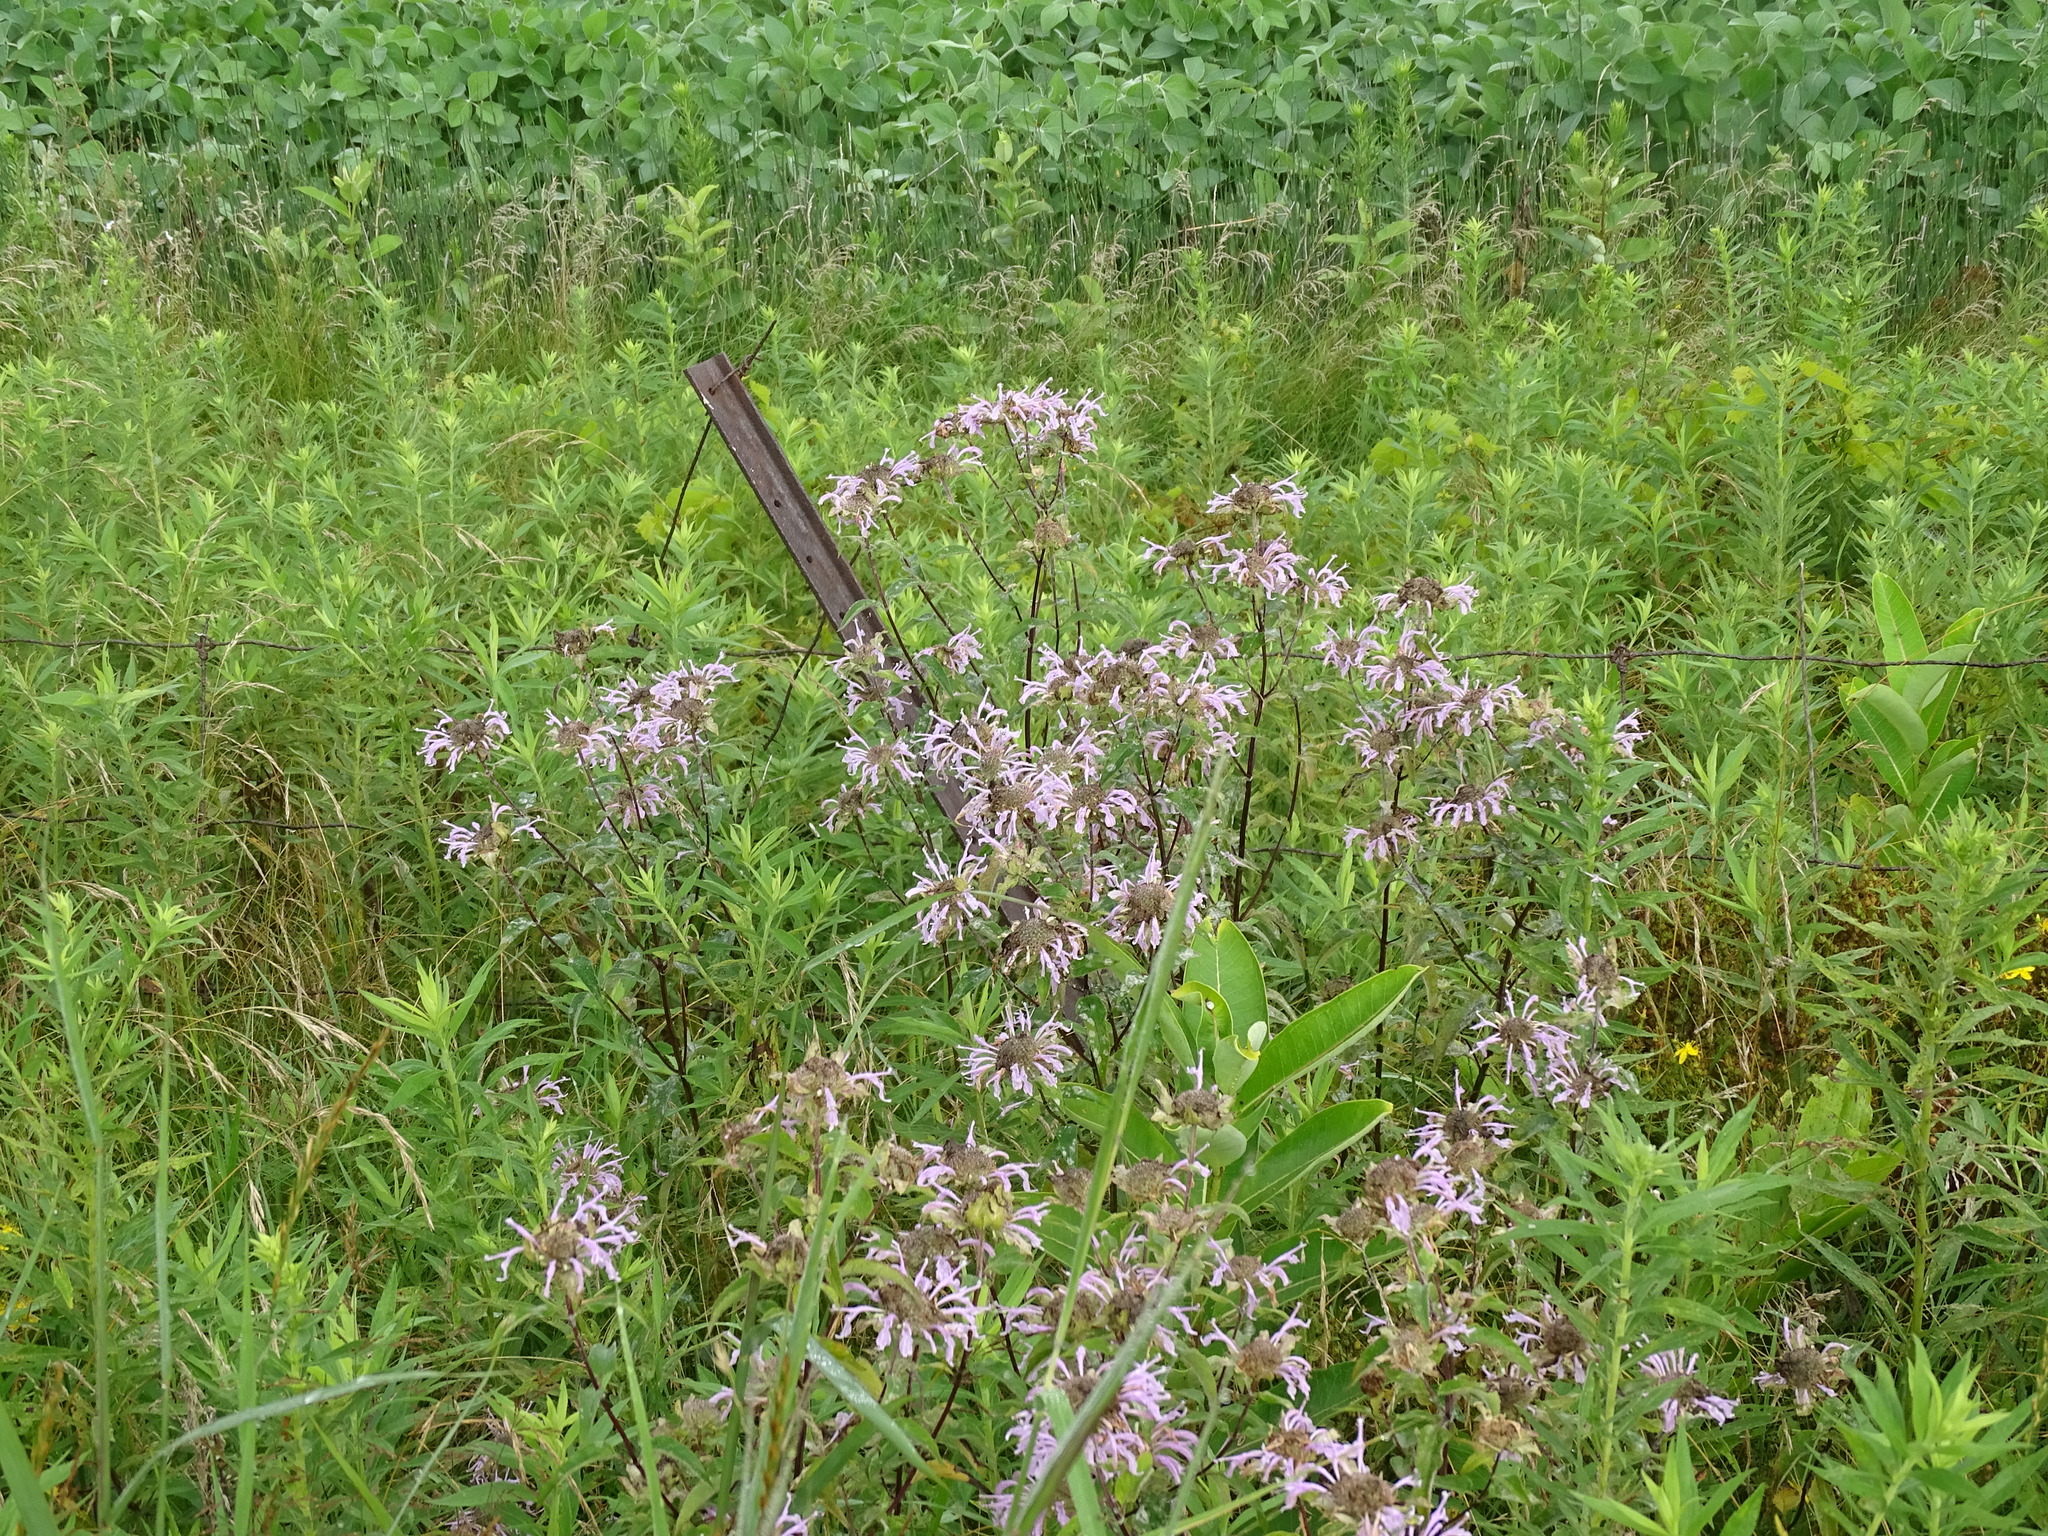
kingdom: Plantae
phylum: Tracheophyta
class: Magnoliopsida
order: Lamiales
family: Lamiaceae
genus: Monarda
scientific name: Monarda fistulosa
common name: Purple beebalm
